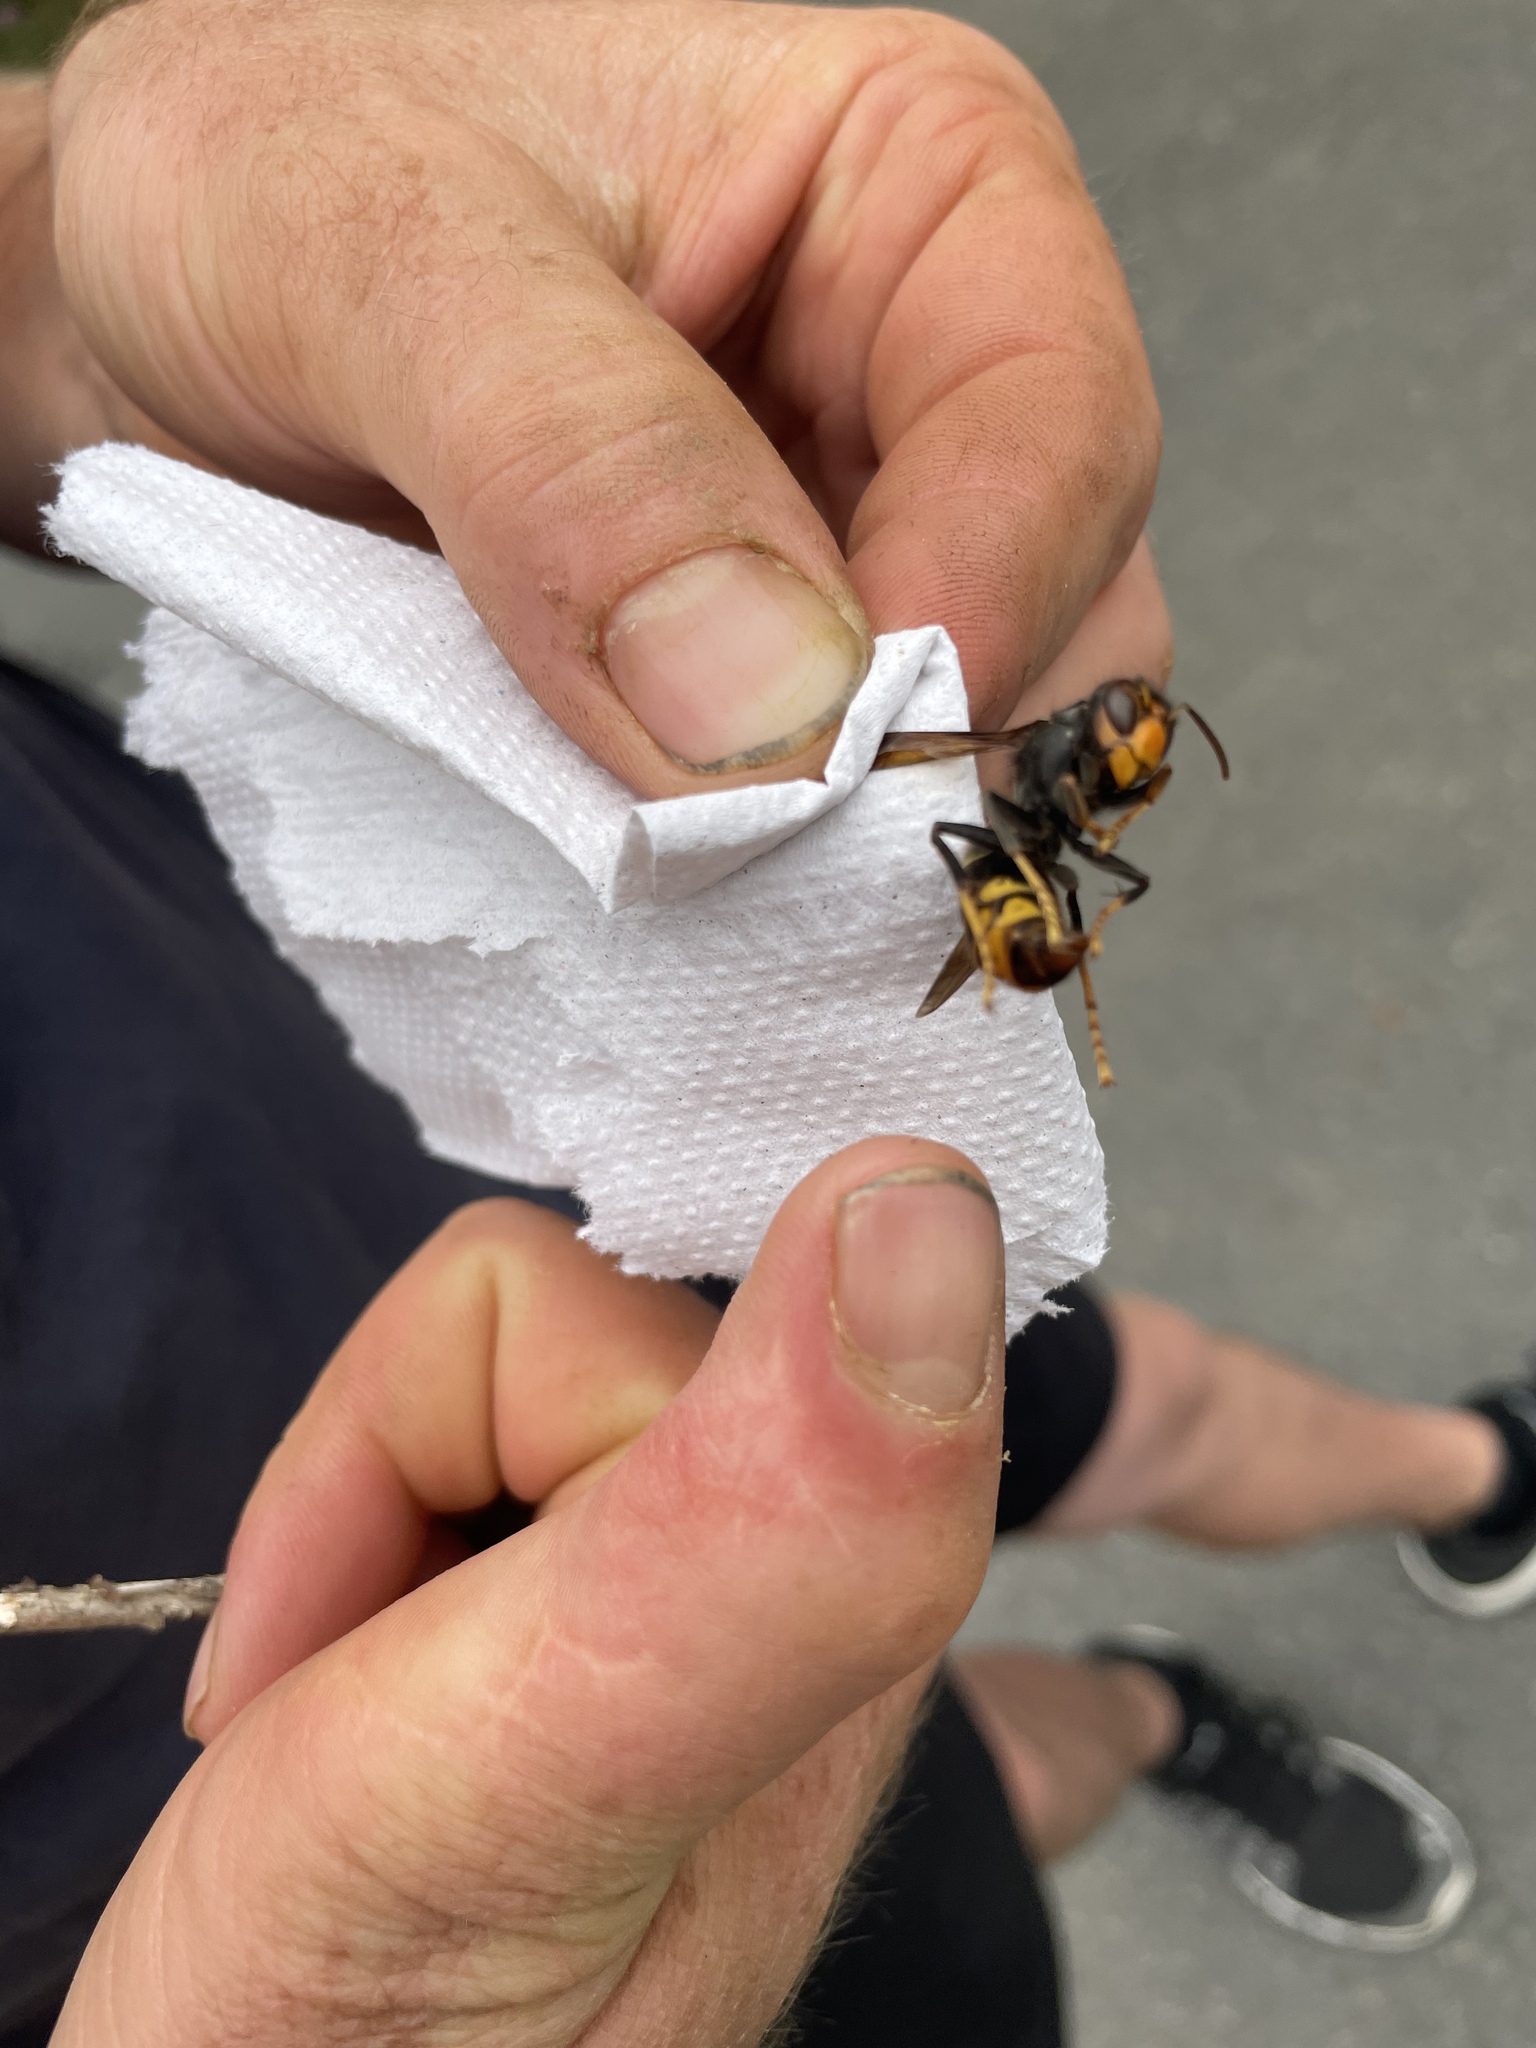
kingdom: Animalia
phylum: Arthropoda
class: Insecta
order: Hymenoptera
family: Vespidae
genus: Vespa
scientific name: Vespa velutina
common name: Asian hornet
